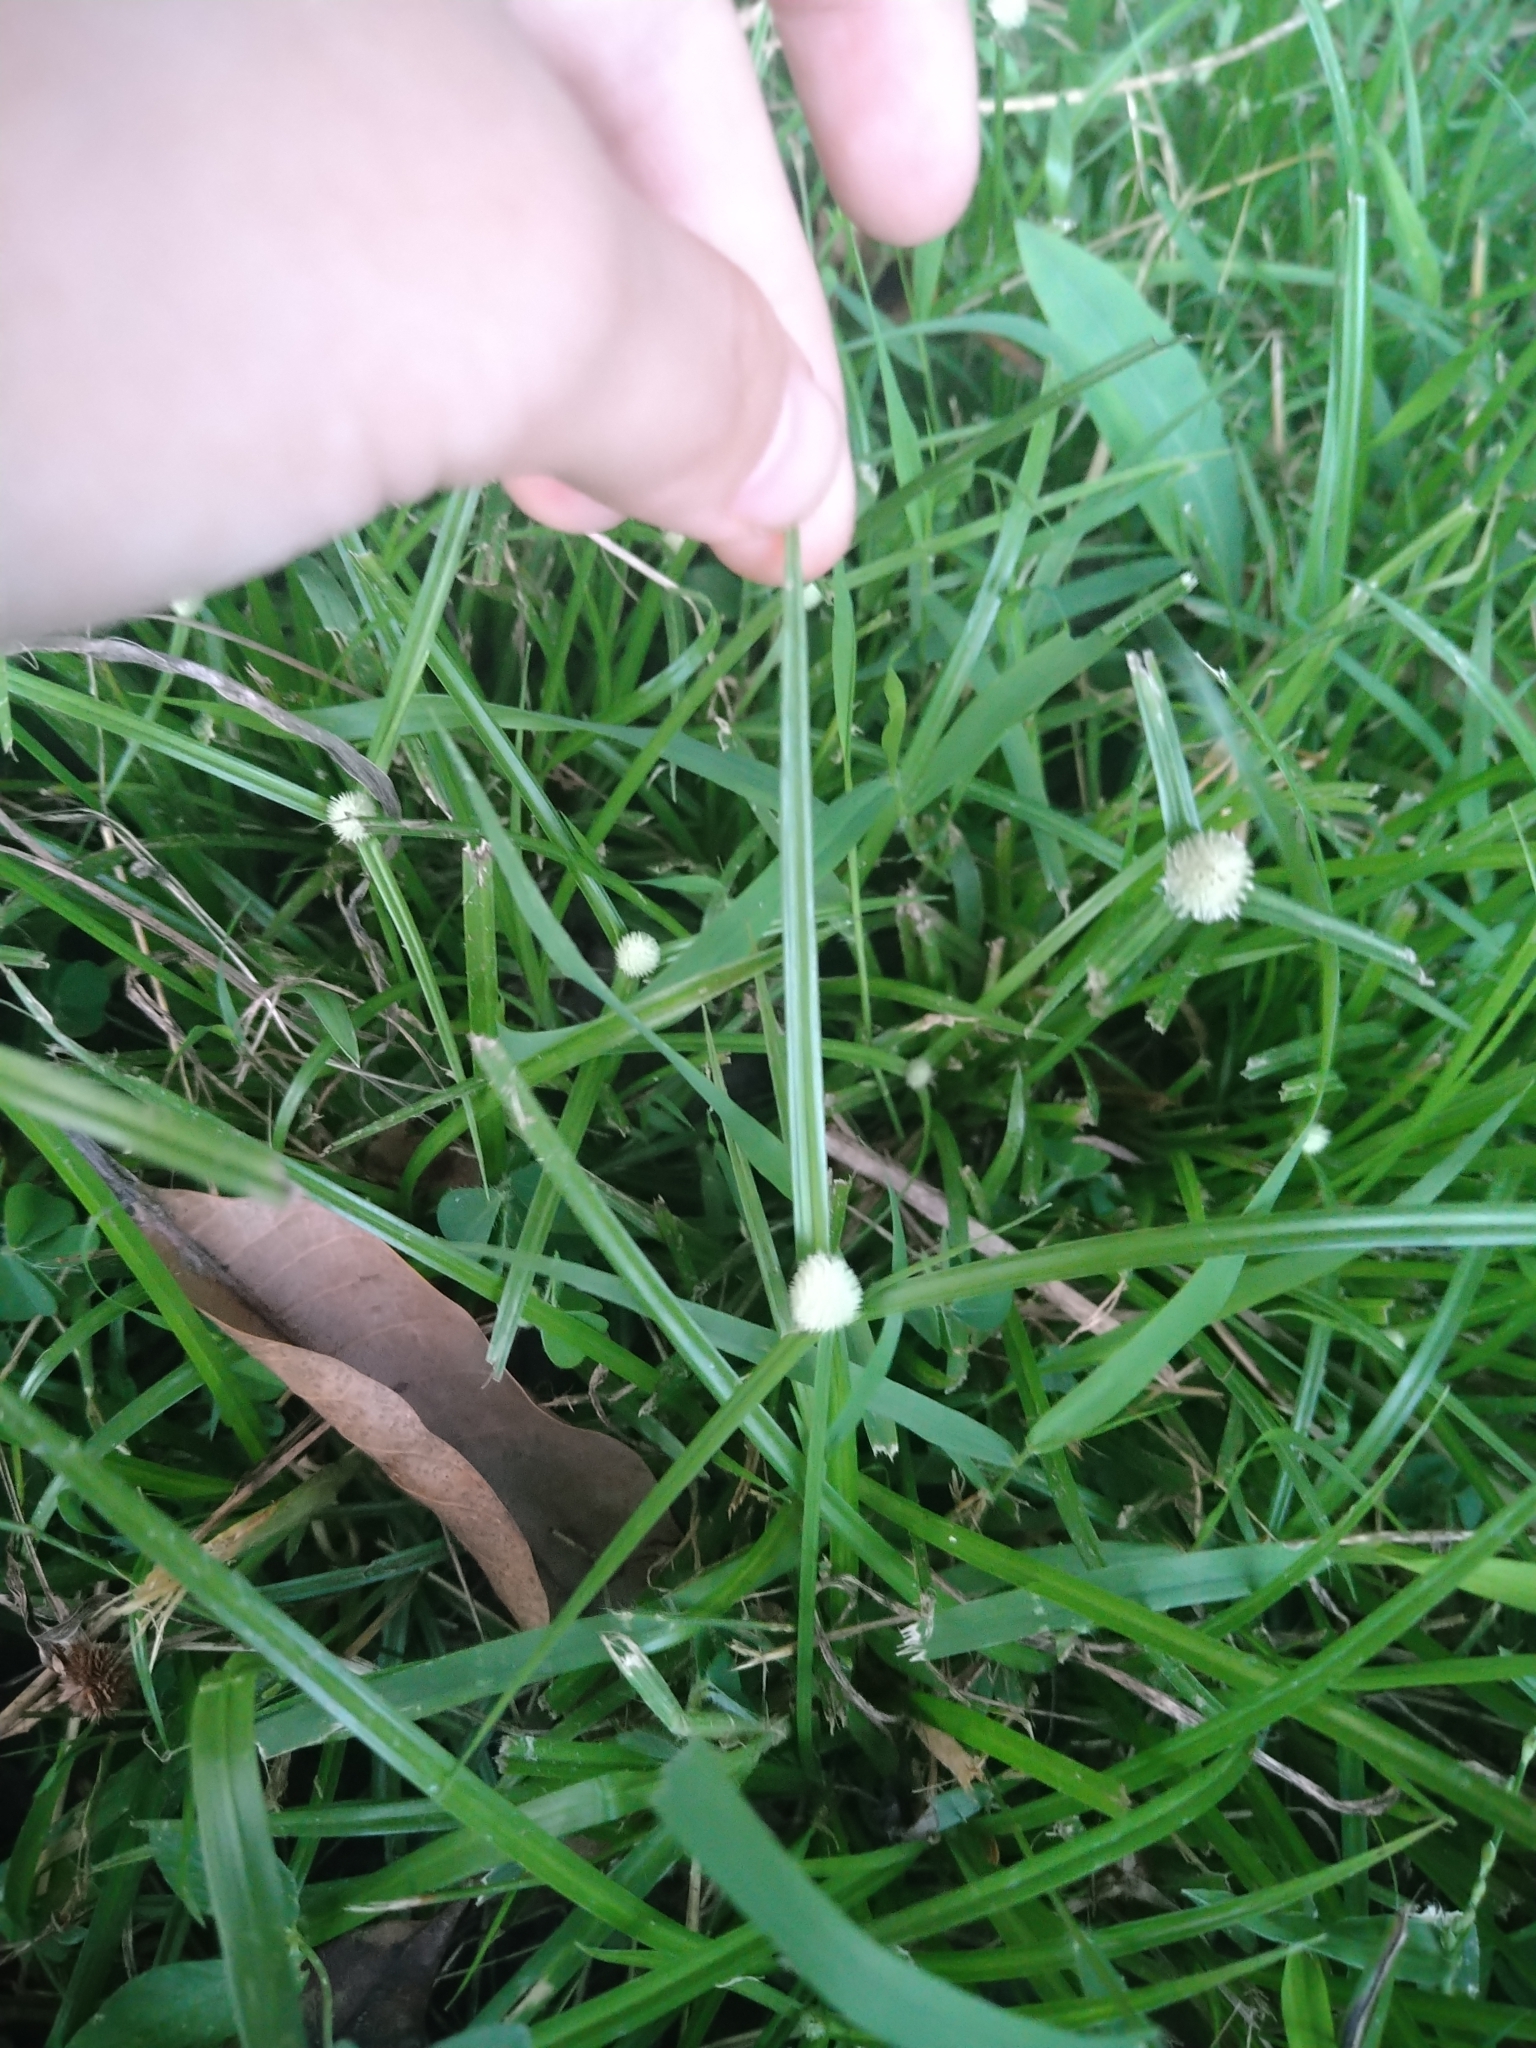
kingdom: Plantae
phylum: Tracheophyta
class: Liliopsida
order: Poales
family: Cyperaceae
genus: Cyperus
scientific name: Cyperus mindorensis
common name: Flatsedge
